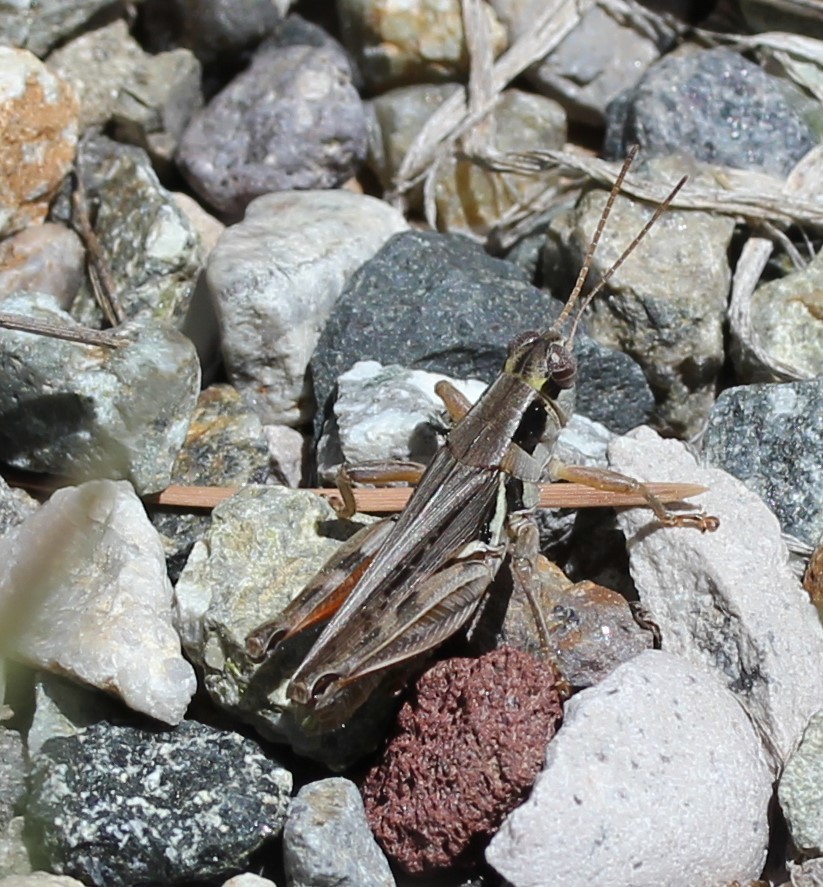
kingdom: Animalia
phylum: Arthropoda
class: Insecta
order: Orthoptera
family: Acrididae
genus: Melanoplus
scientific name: Melanoplus confusus
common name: Little pasture locust
